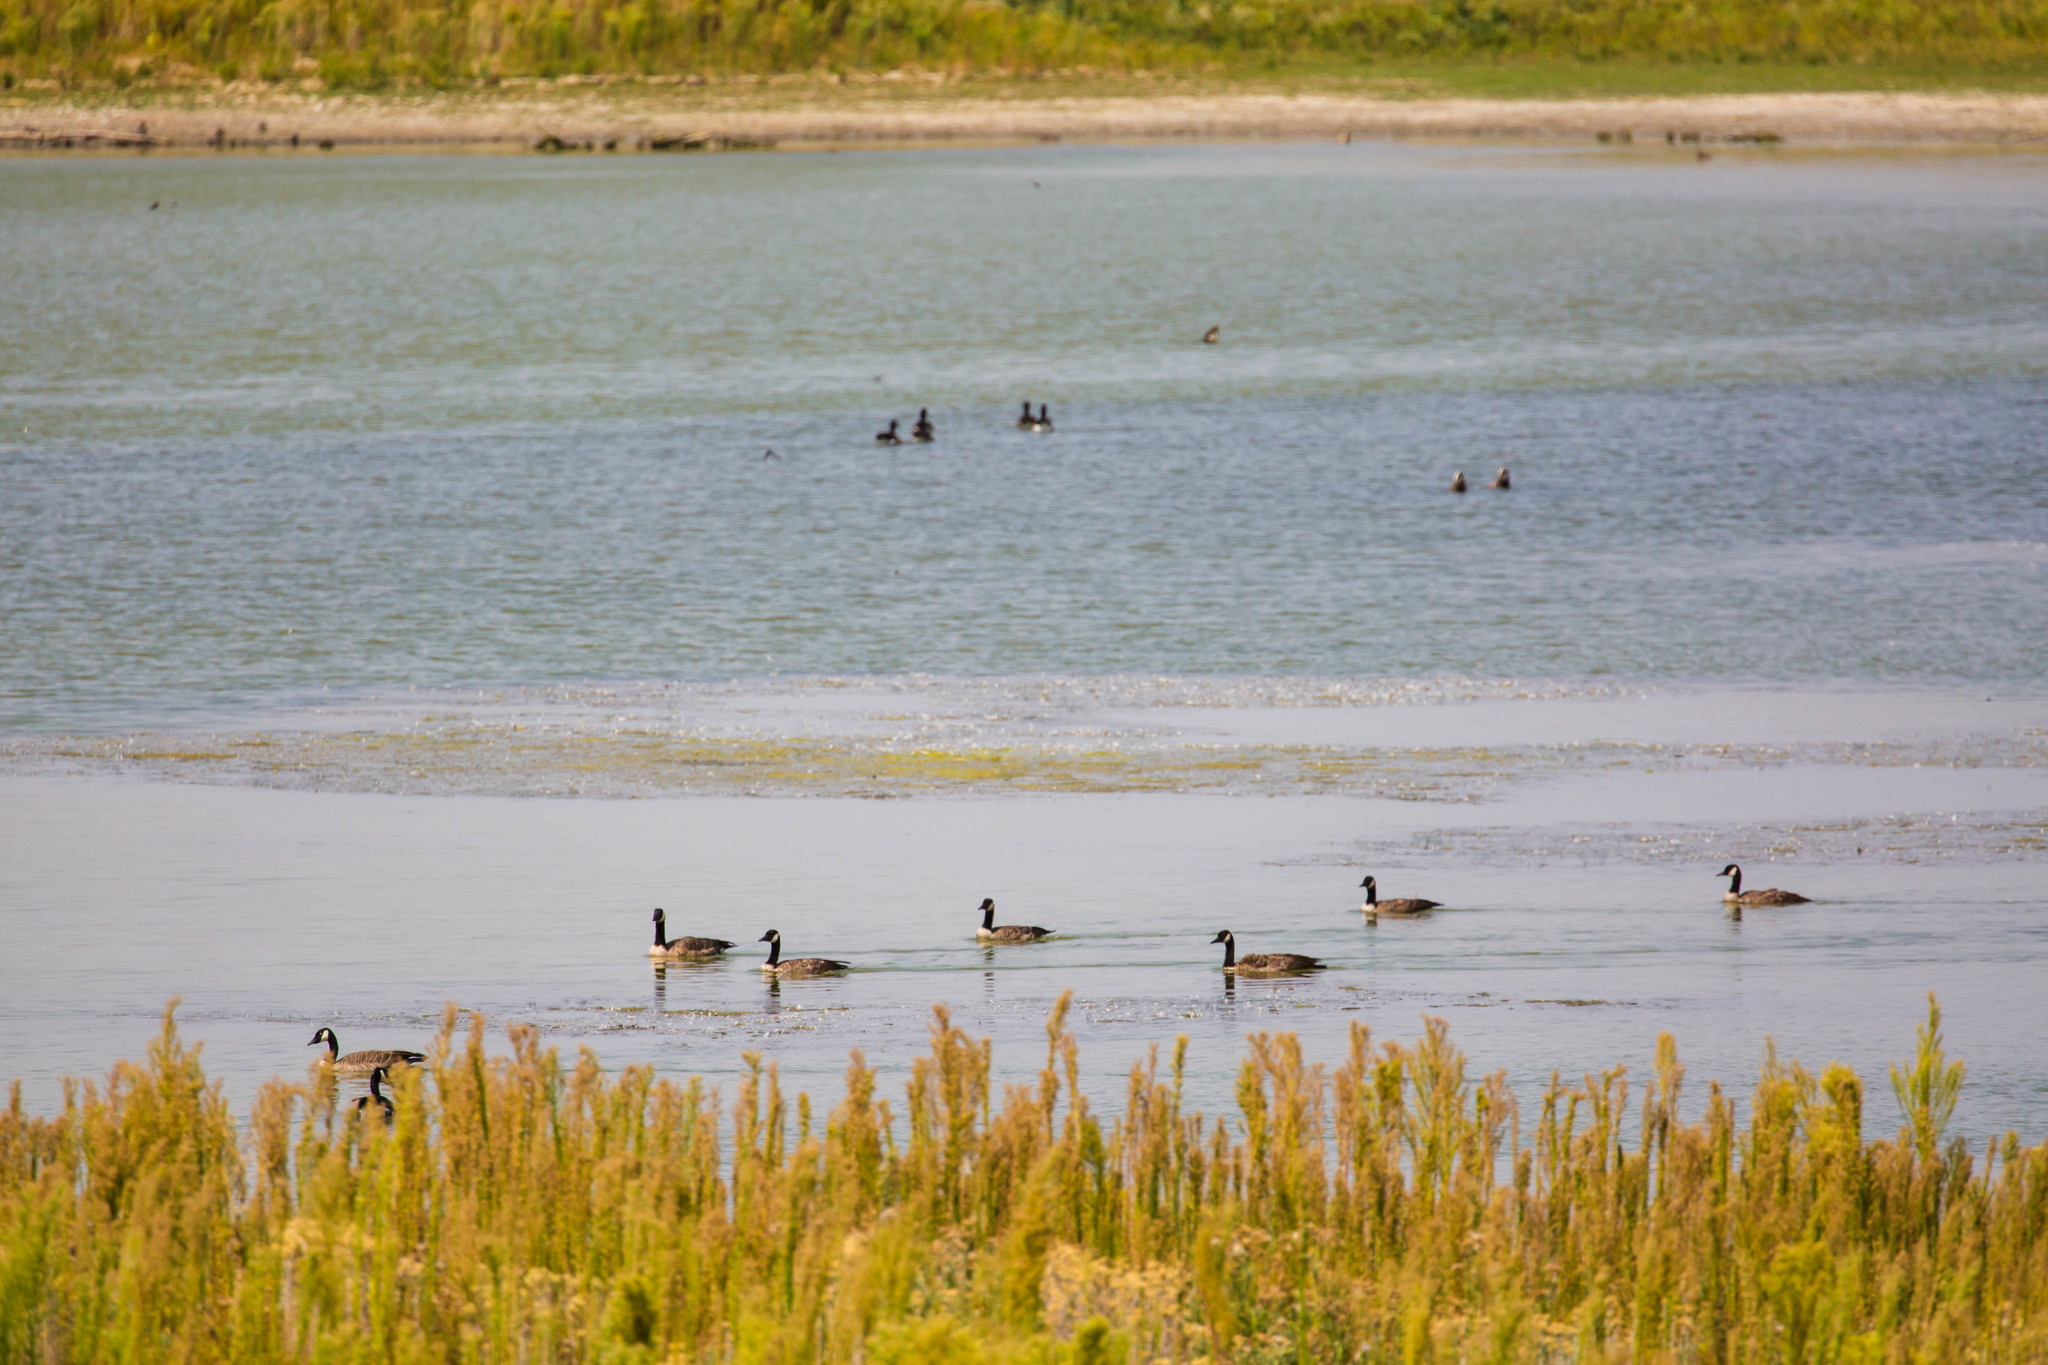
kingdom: Animalia
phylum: Chordata
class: Aves
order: Anseriformes
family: Anatidae
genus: Branta
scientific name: Branta canadensis
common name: Canada goose
